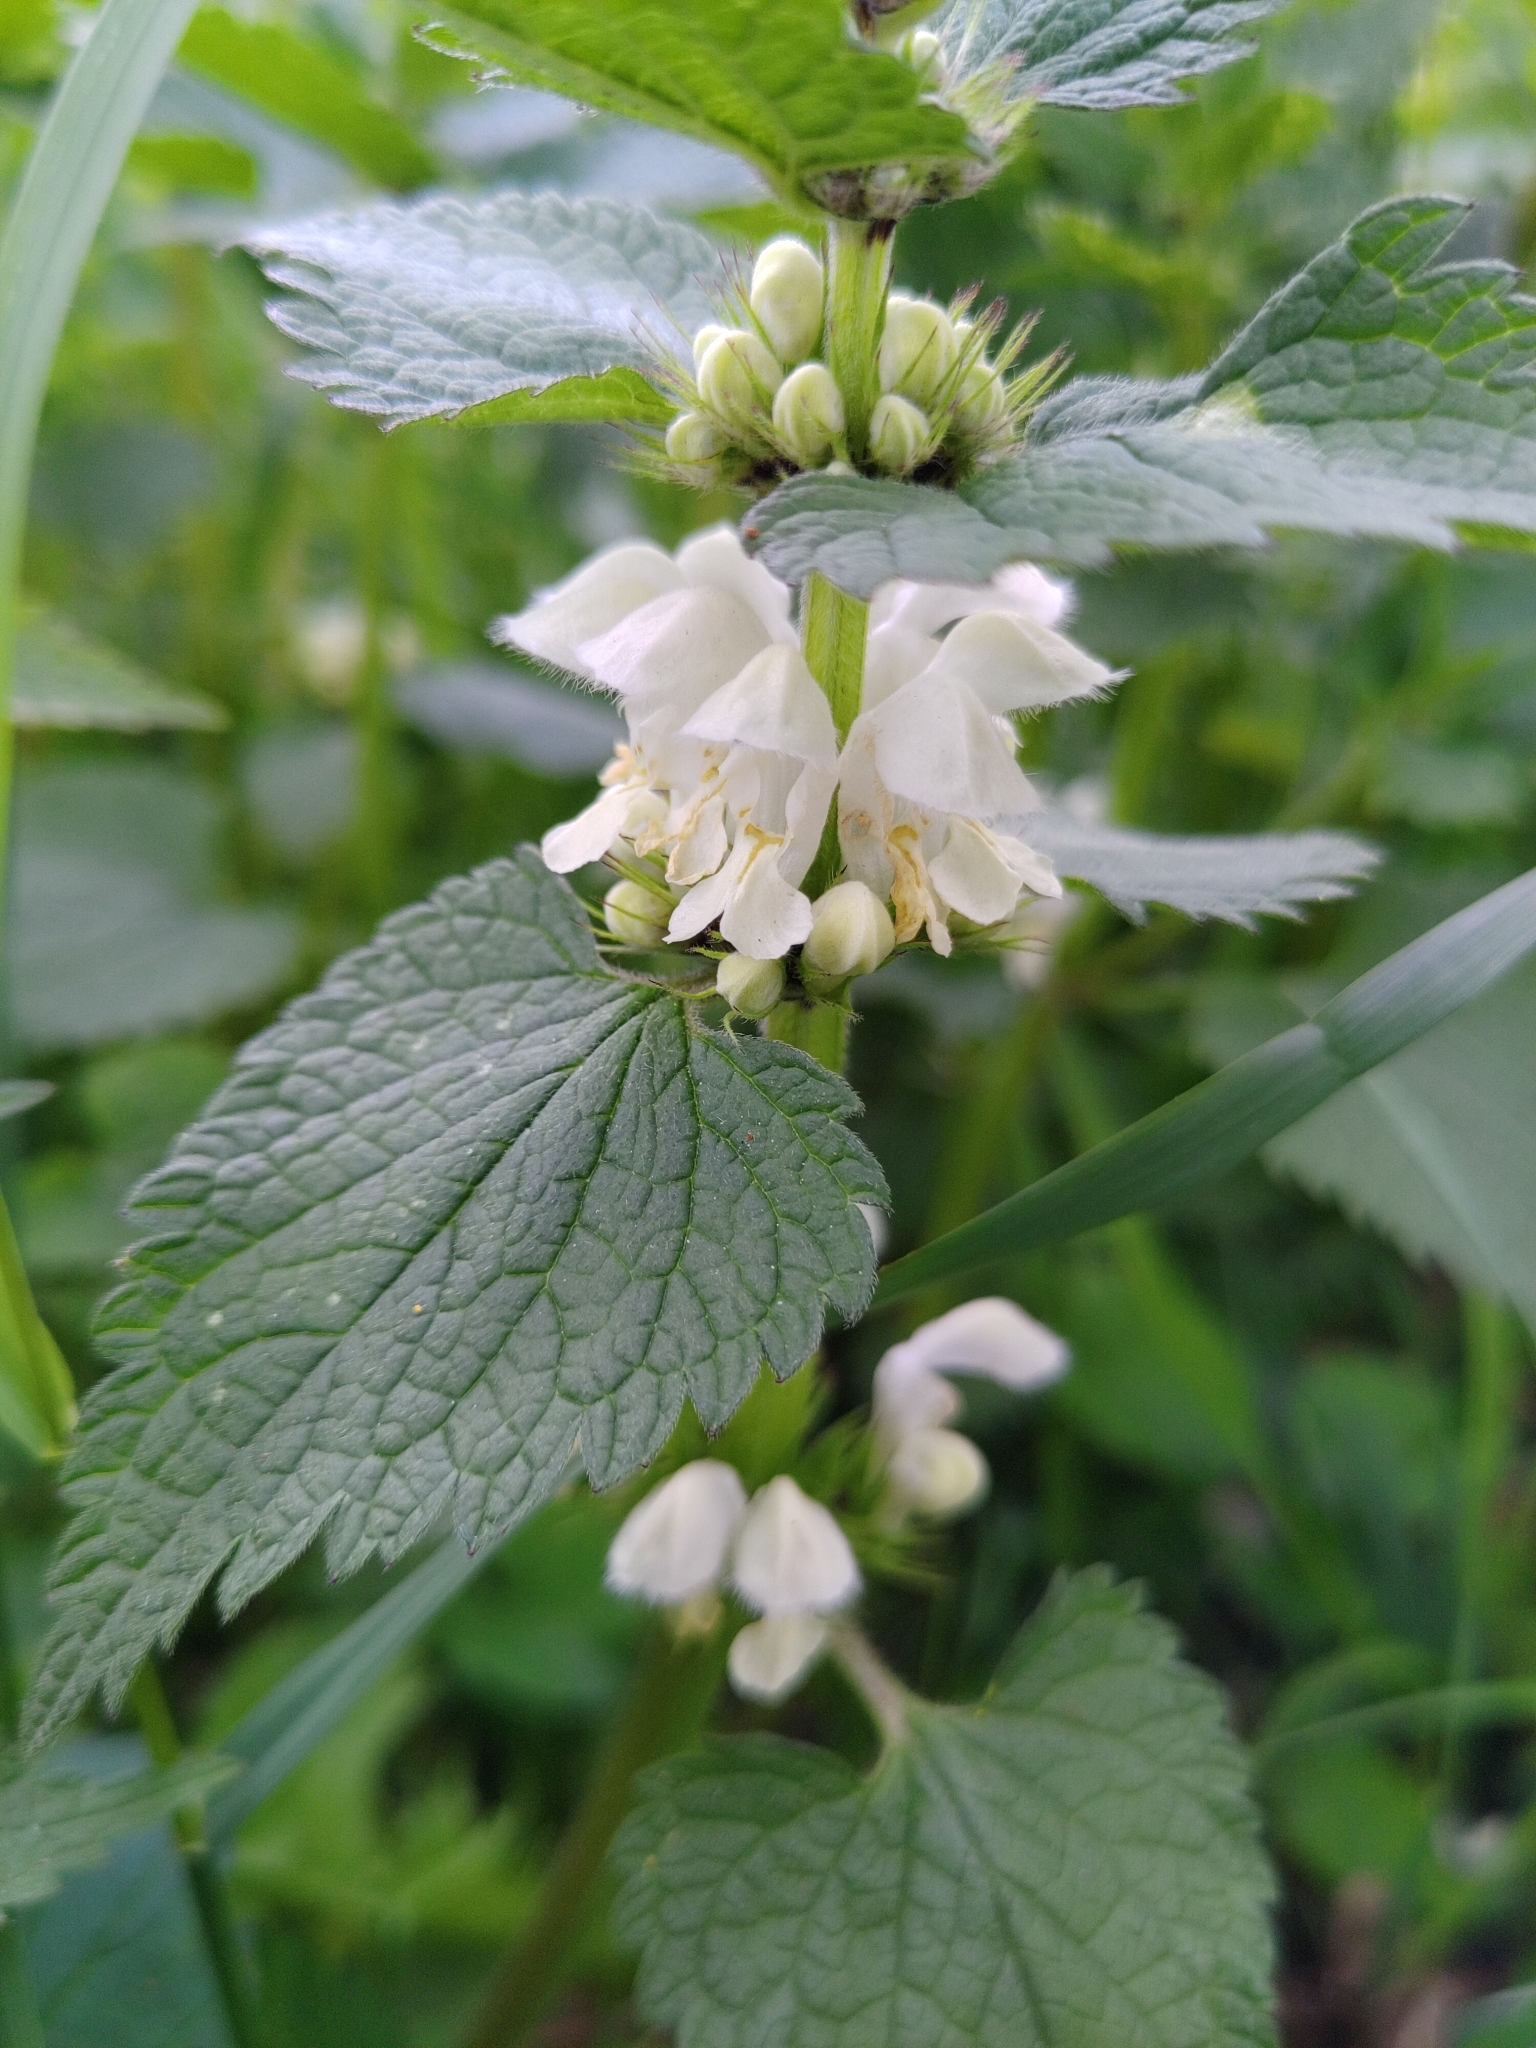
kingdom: Plantae
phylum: Tracheophyta
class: Magnoliopsida
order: Lamiales
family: Lamiaceae
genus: Lamium
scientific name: Lamium album
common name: White dead-nettle
